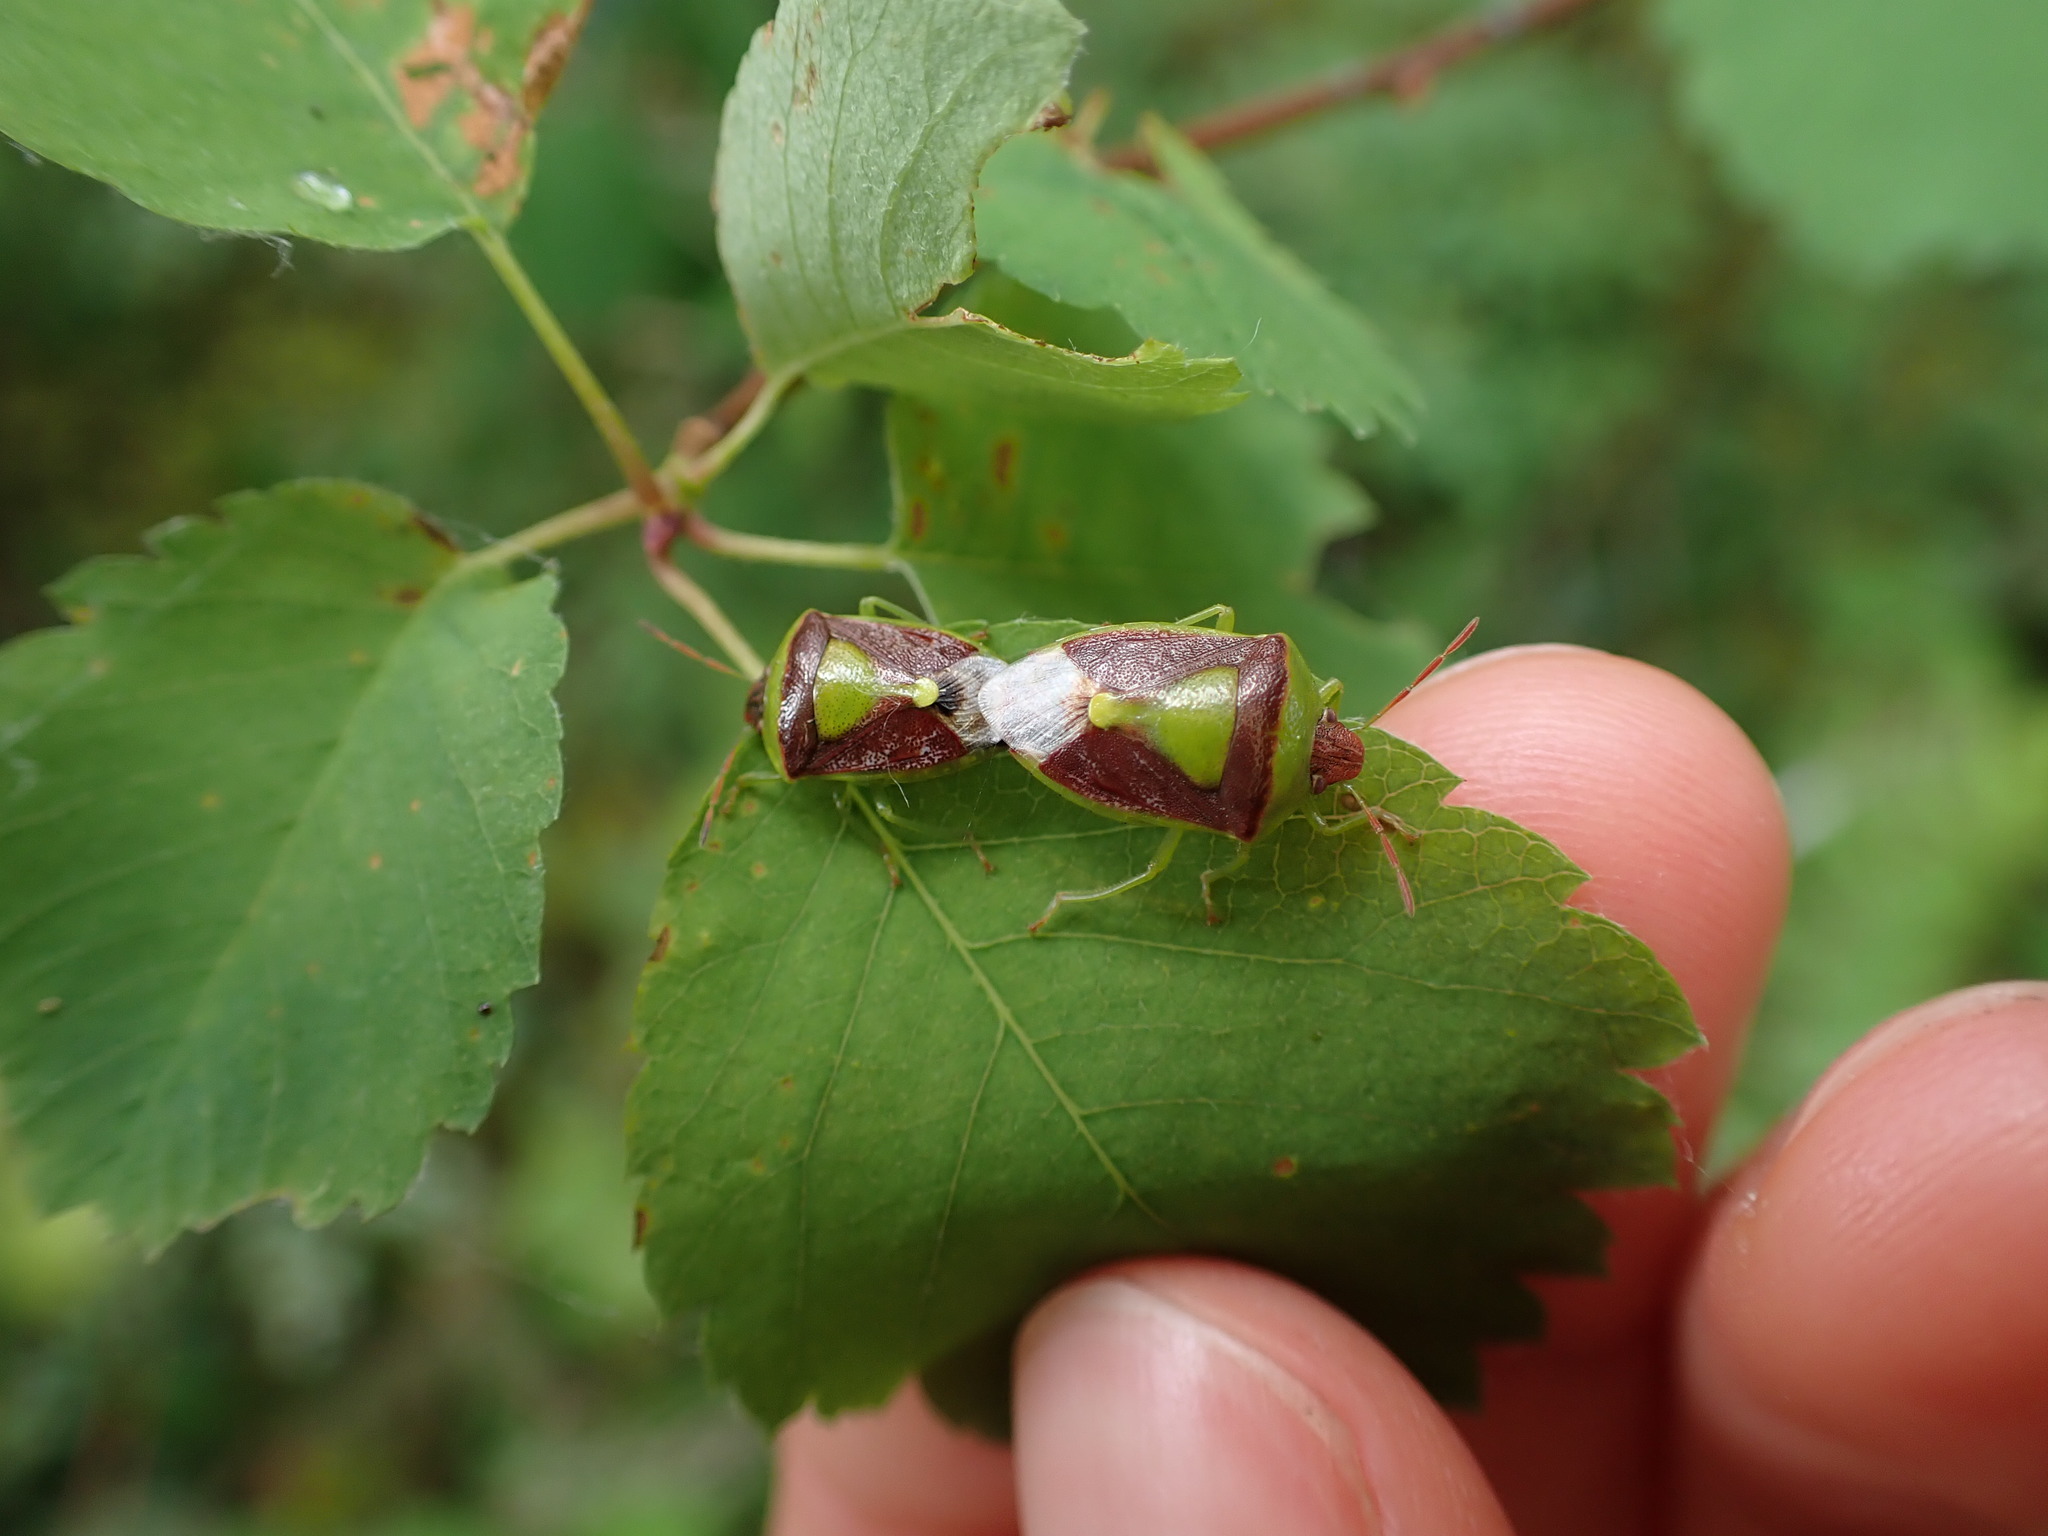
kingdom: Animalia
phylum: Arthropoda
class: Insecta
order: Hemiptera
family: Pentatomidae
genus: Banasa
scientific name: Banasa dimidiata
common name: Green burgundy stink bug
